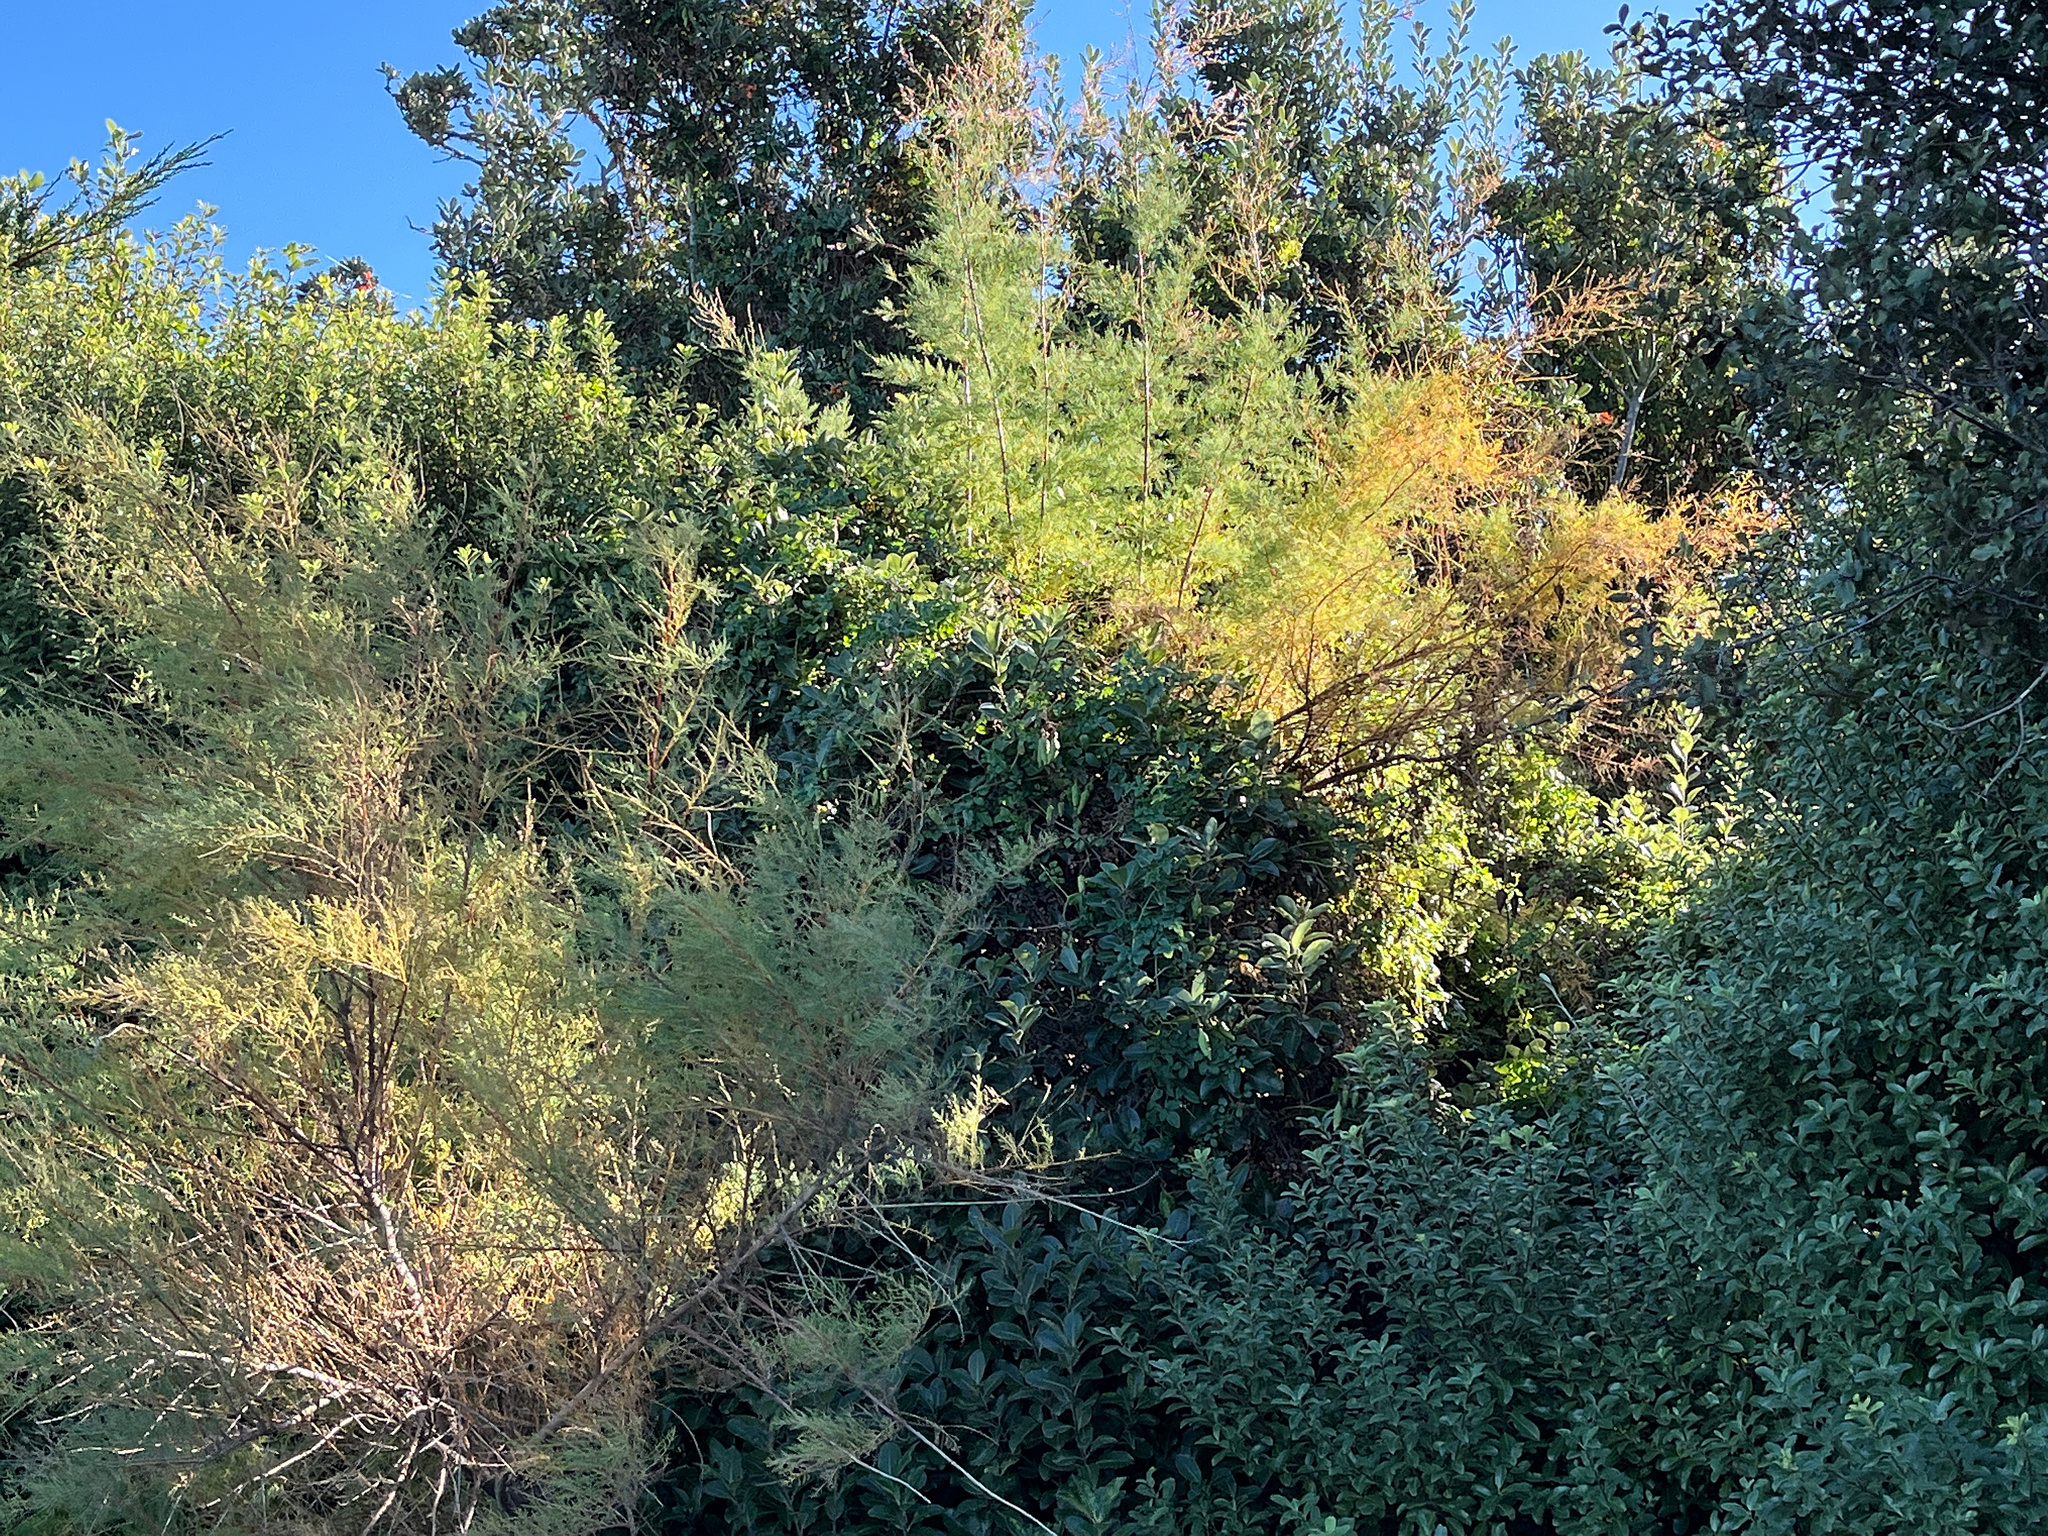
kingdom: Plantae
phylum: Tracheophyta
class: Magnoliopsida
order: Lamiales
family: Bignoniaceae
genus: Eccremocarpus
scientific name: Eccremocarpus scaber
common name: Chilean glory-flower
